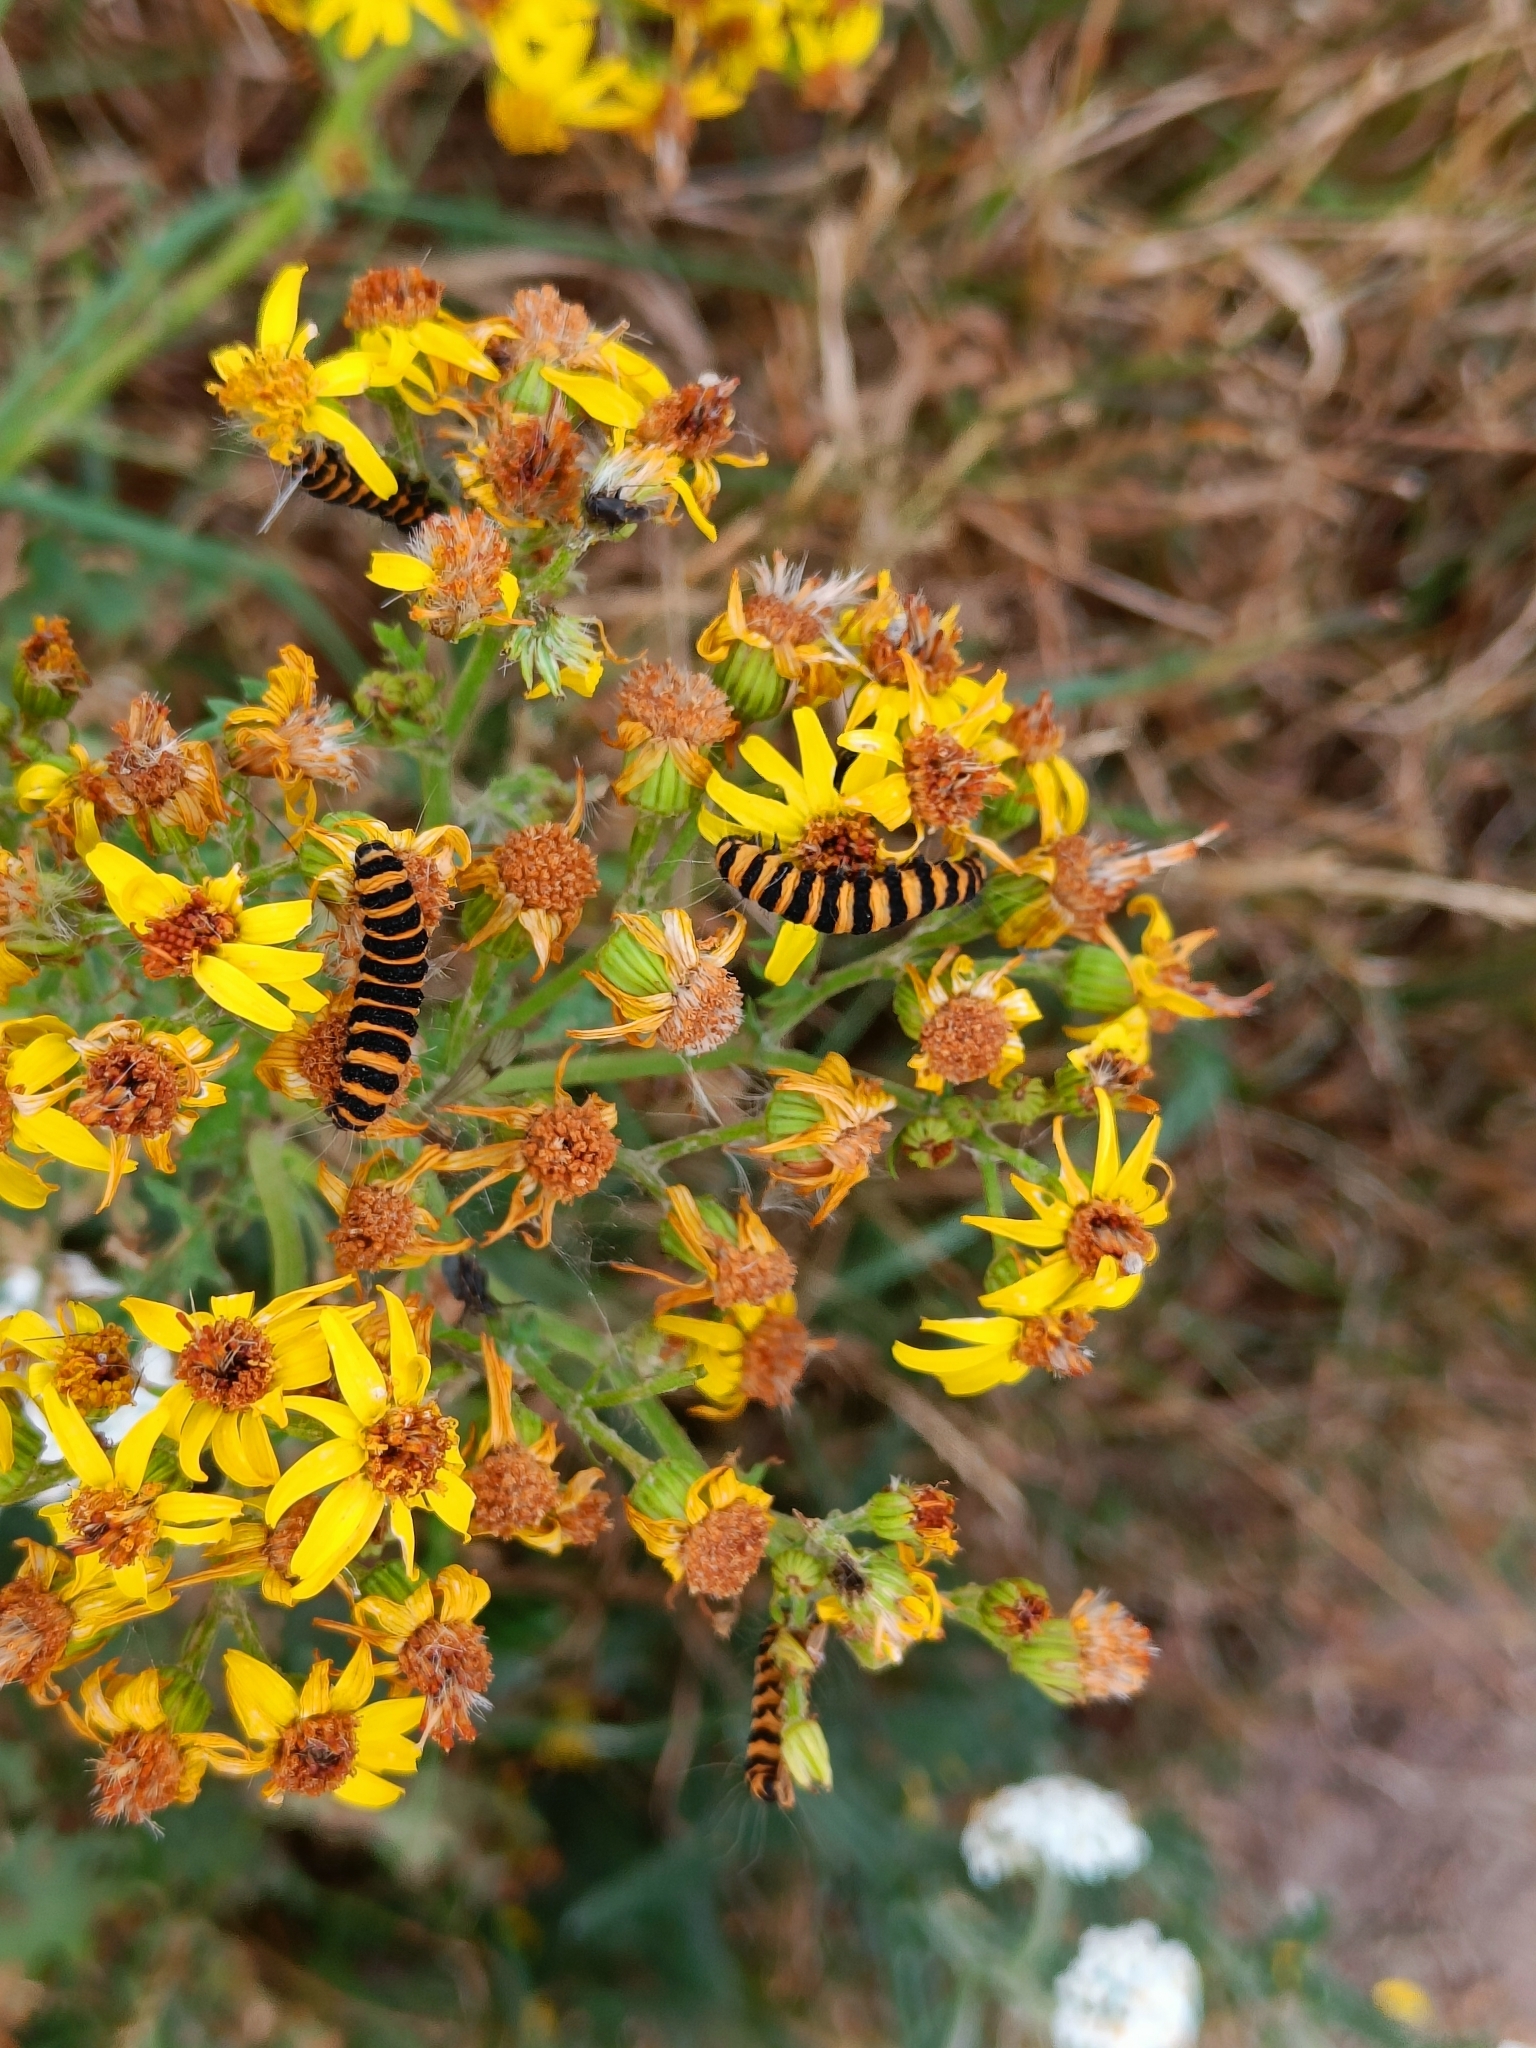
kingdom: Animalia
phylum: Arthropoda
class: Insecta
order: Lepidoptera
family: Erebidae
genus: Tyria
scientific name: Tyria jacobaeae
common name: Cinnabar
